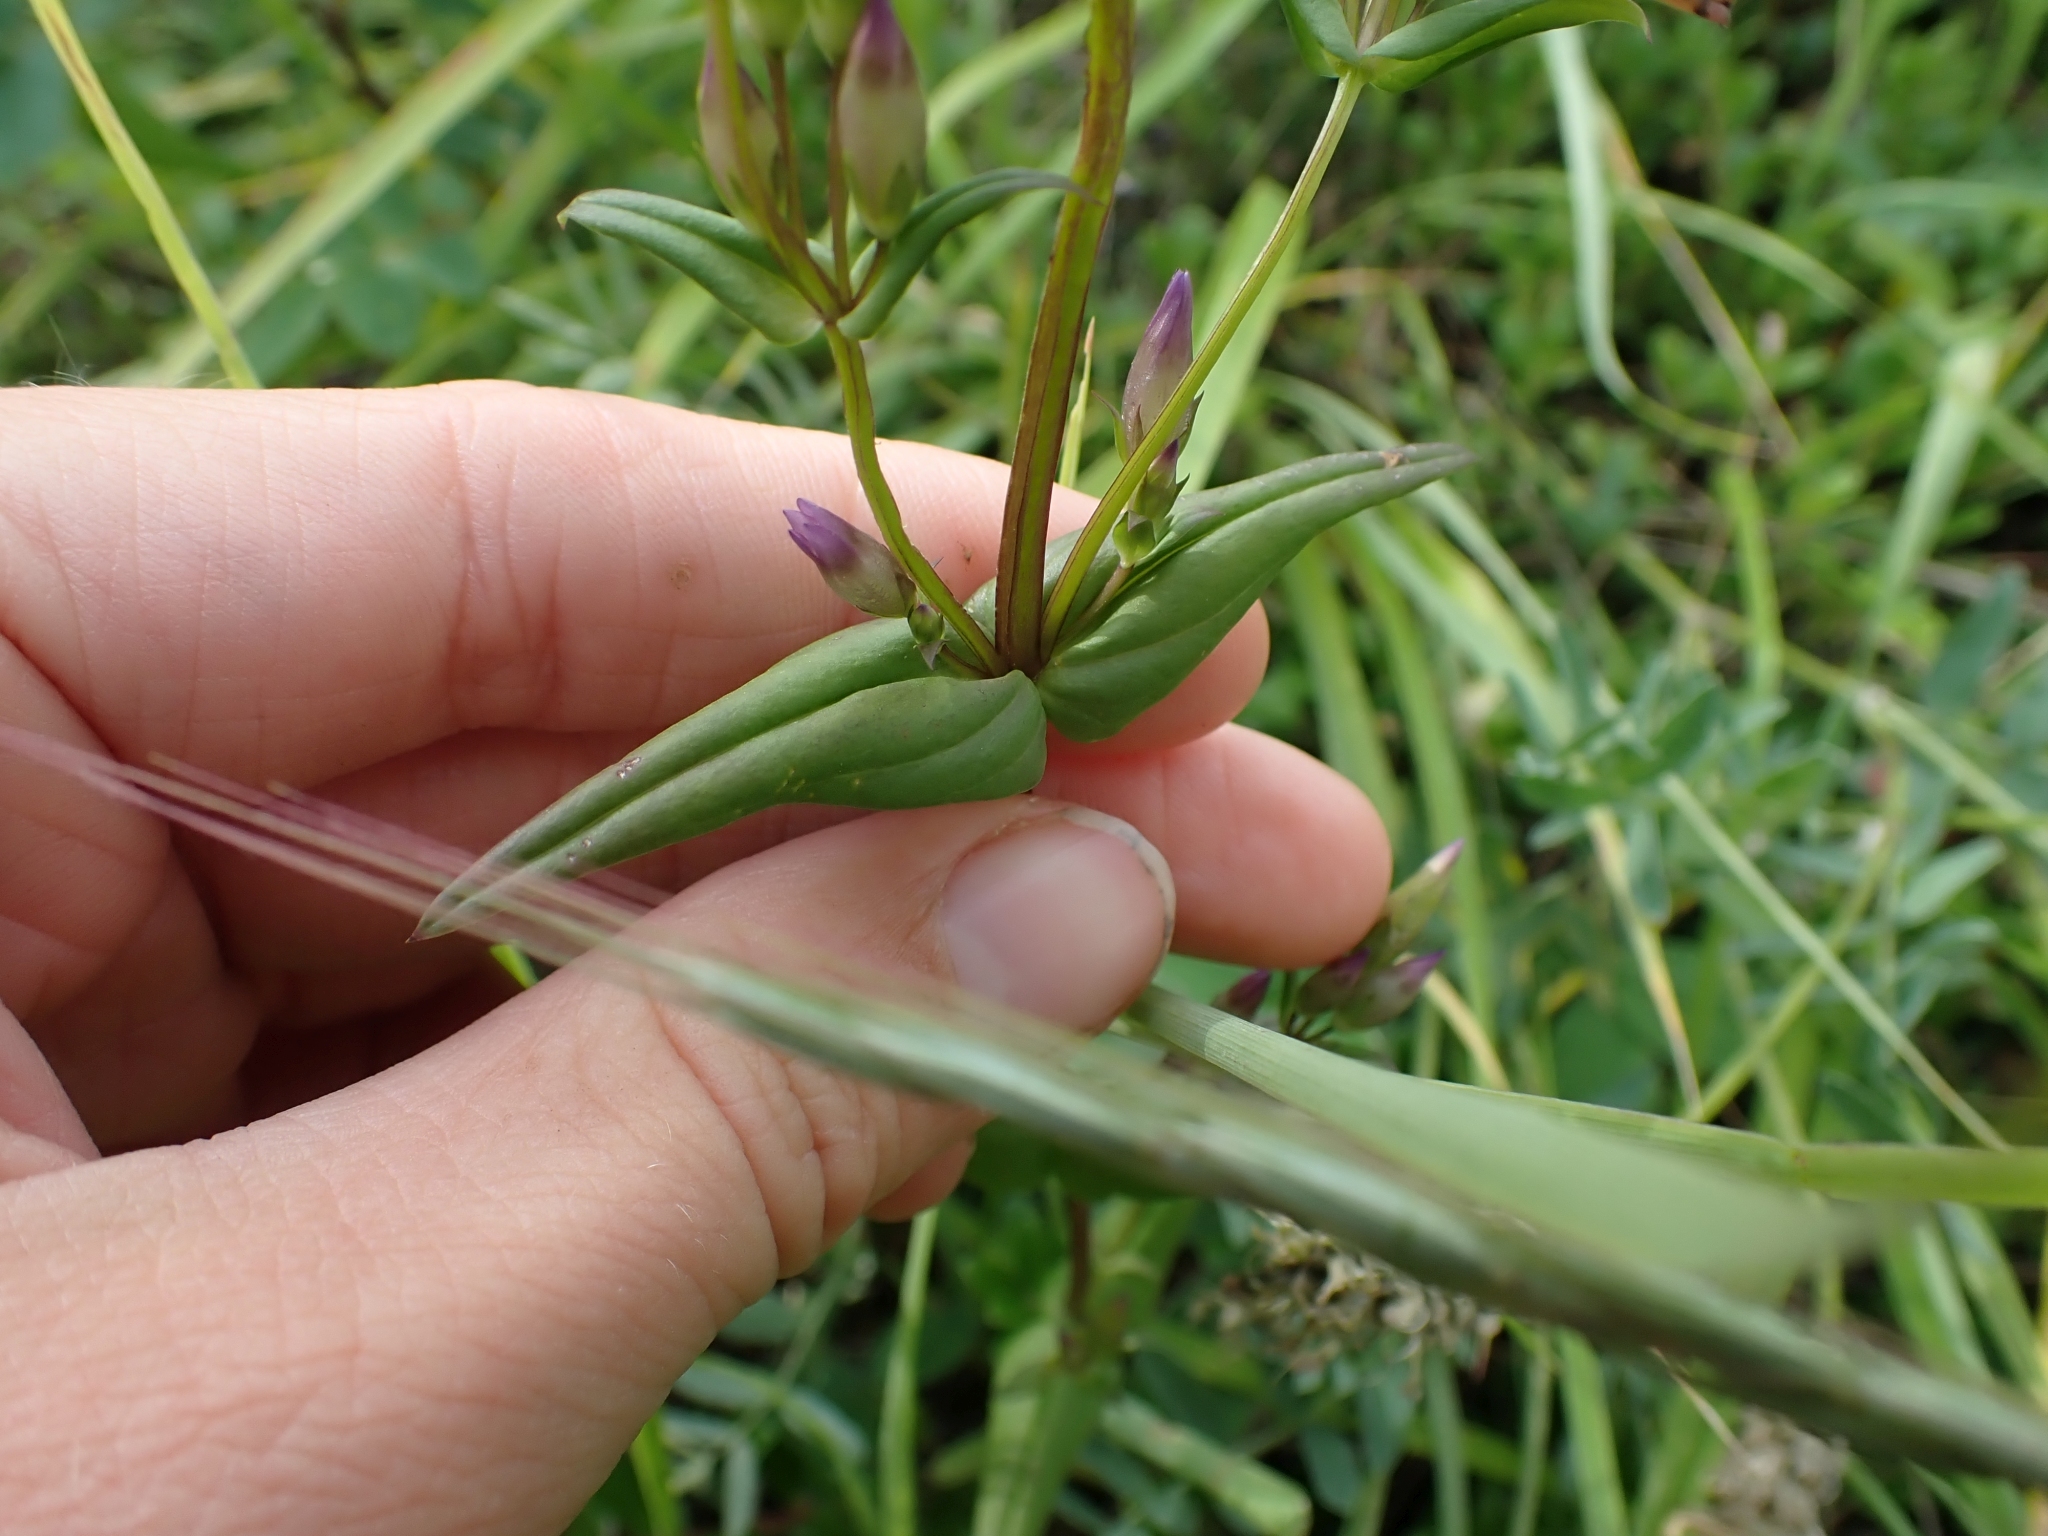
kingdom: Plantae
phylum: Tracheophyta
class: Magnoliopsida
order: Gentianales
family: Gentianaceae
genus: Gentianella
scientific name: Gentianella amarella
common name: Autumn gentian
